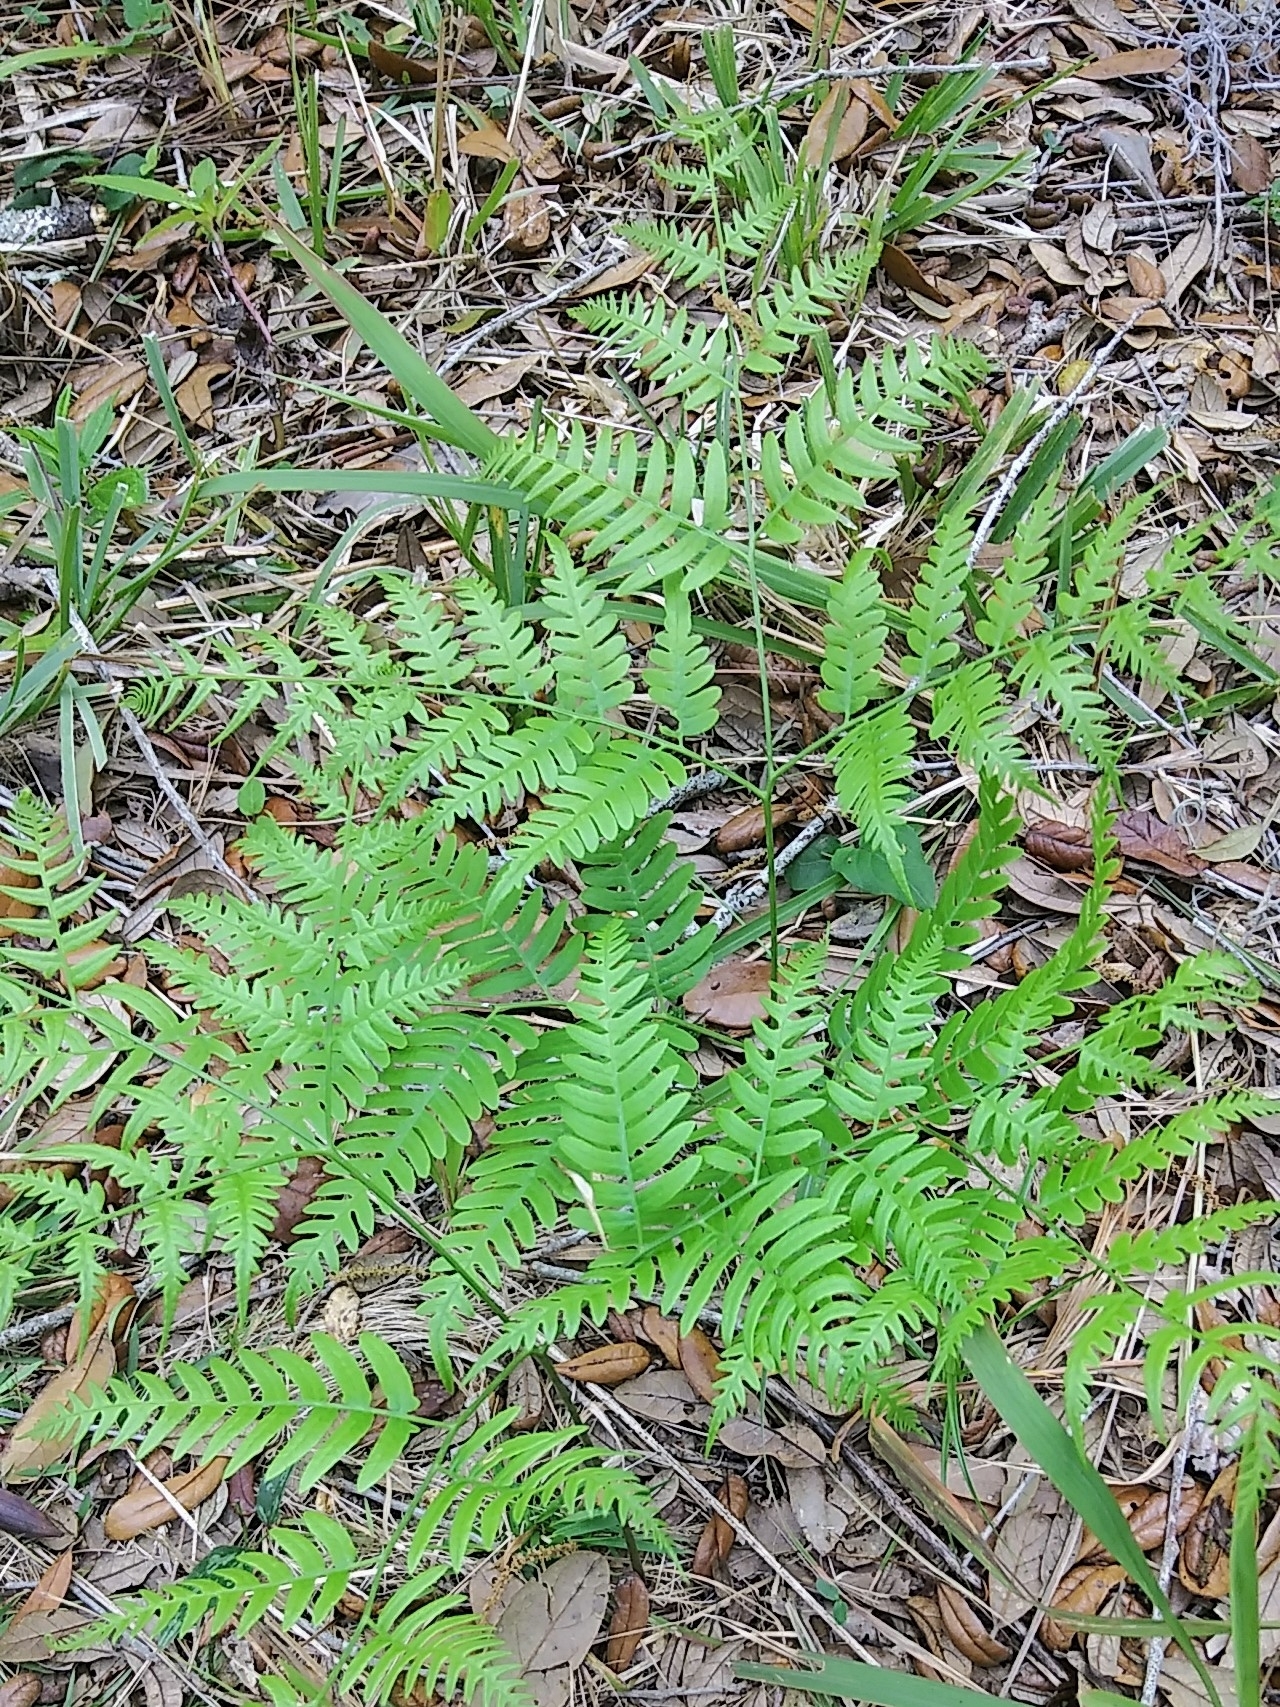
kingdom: Plantae
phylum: Tracheophyta
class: Polypodiopsida
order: Polypodiales
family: Dennstaedtiaceae
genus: Pteridium
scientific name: Pteridium aquilinum
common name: Bracken
